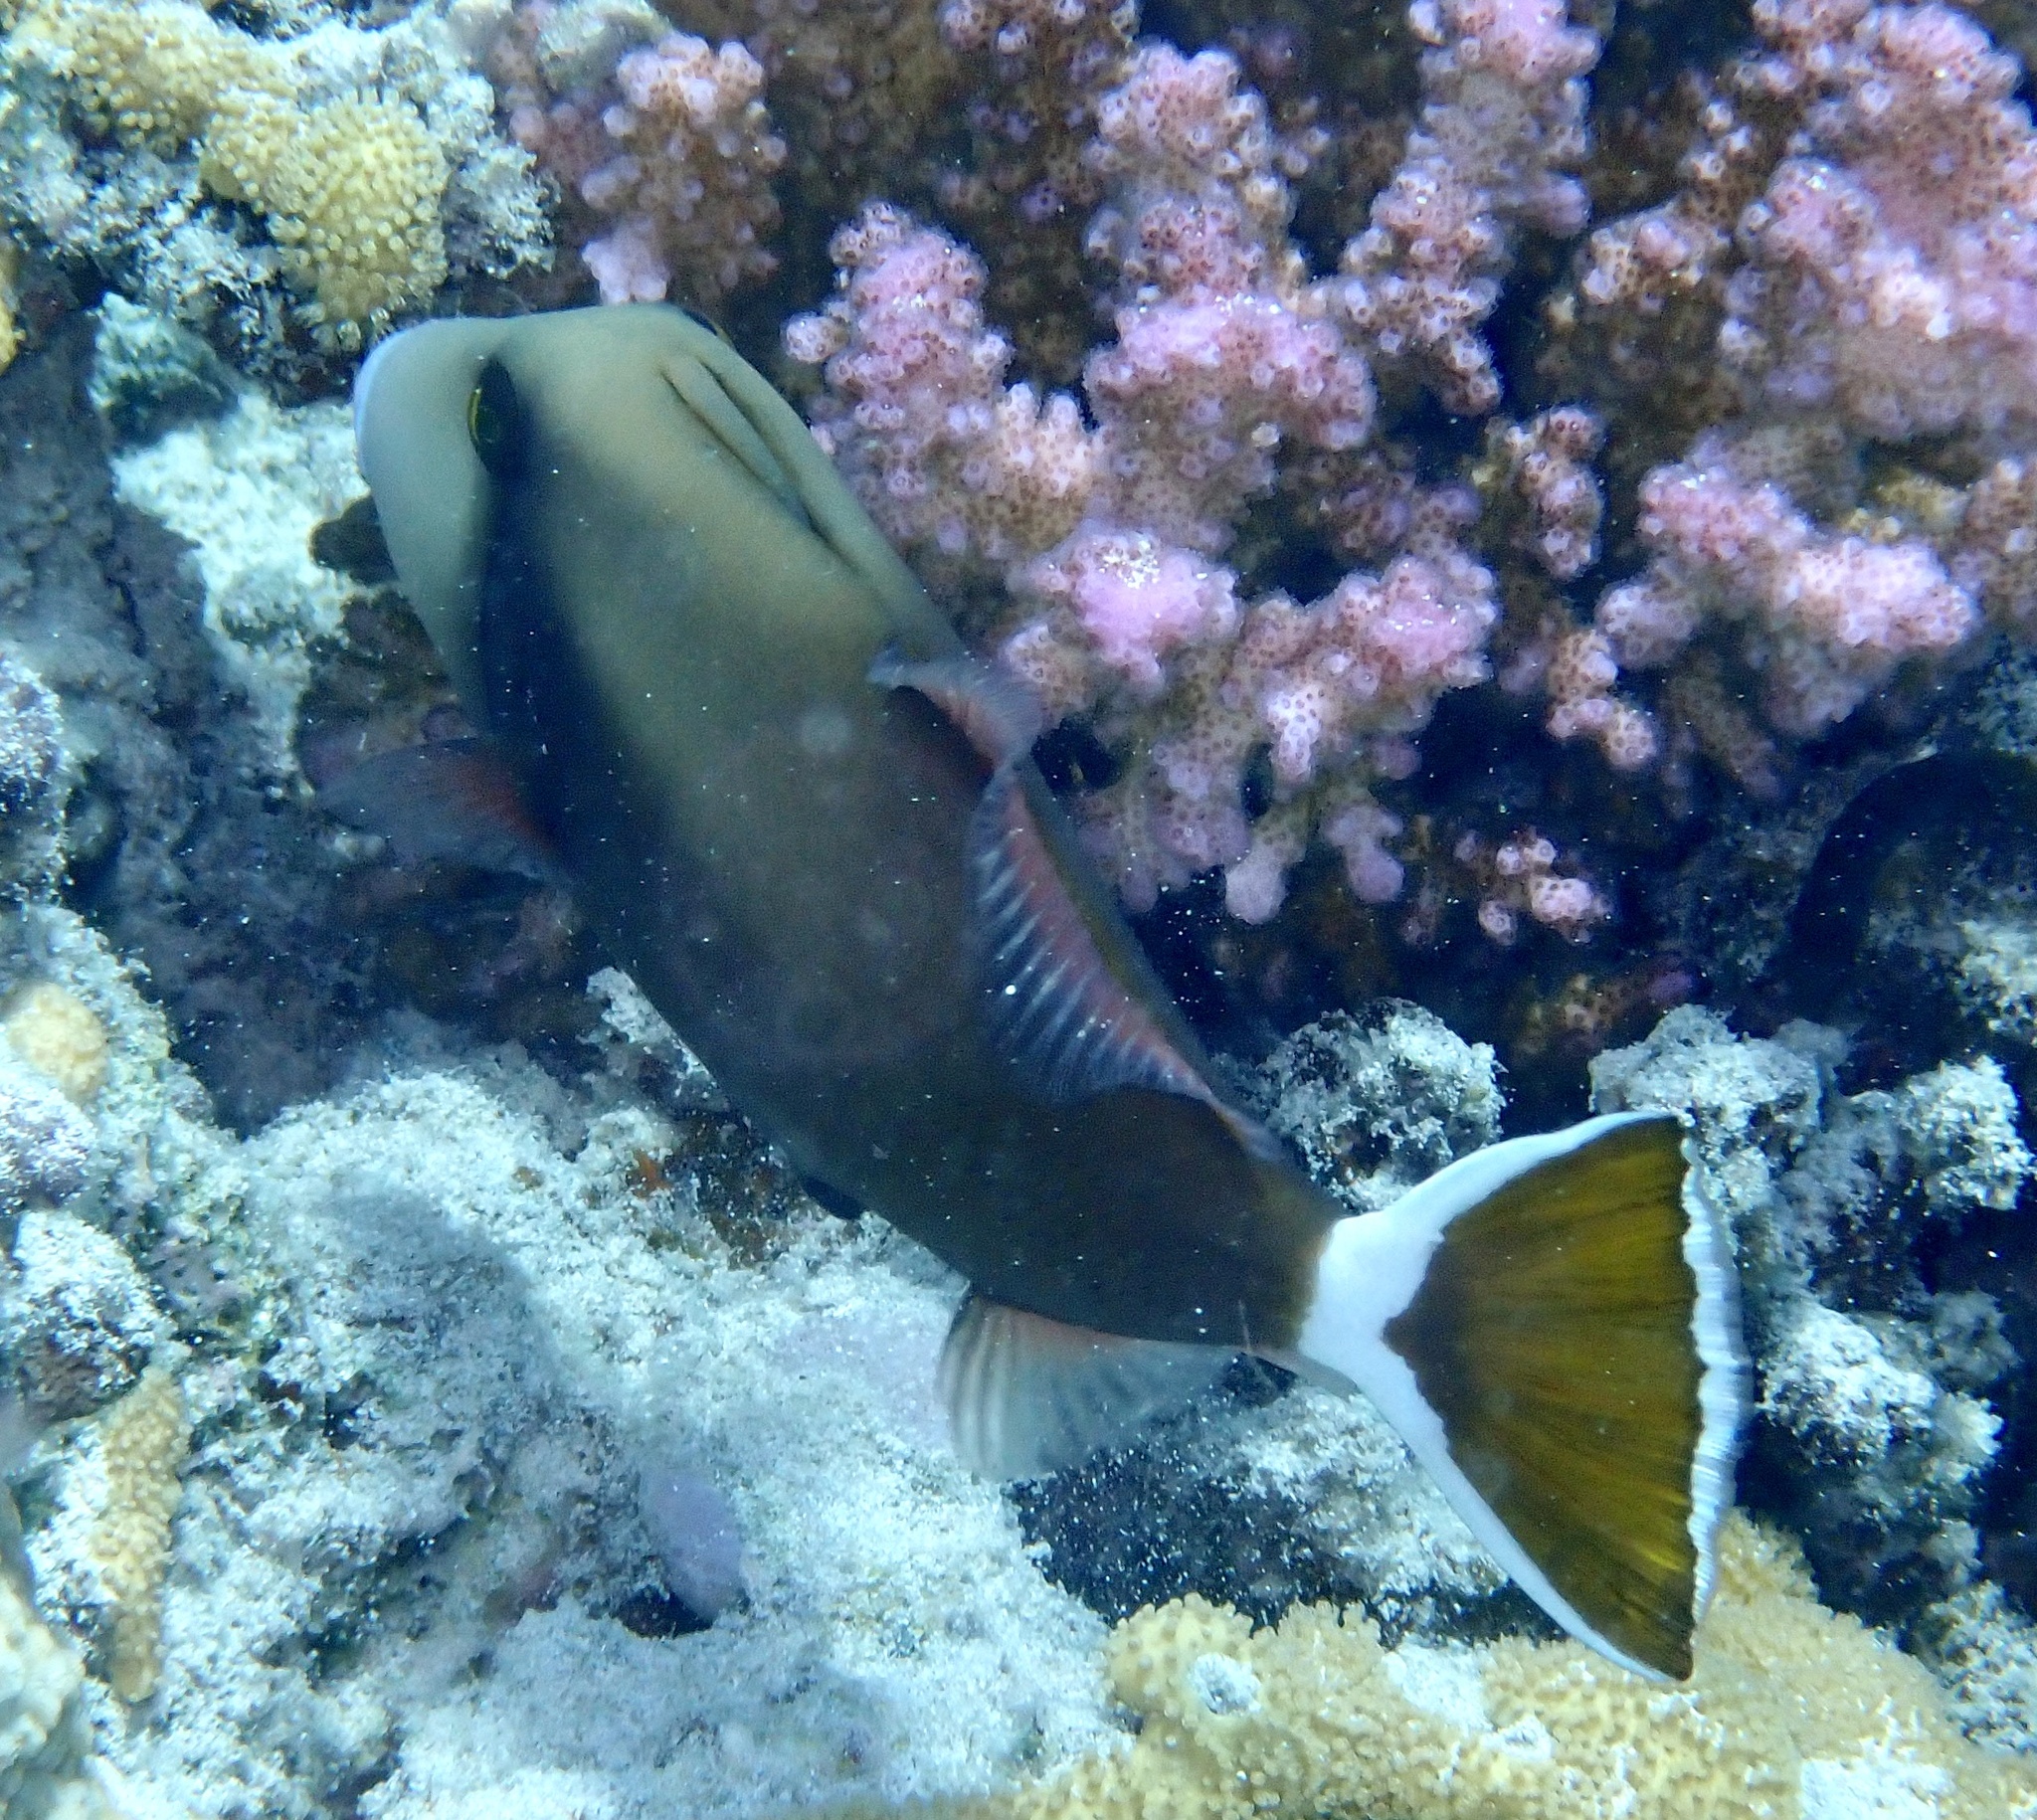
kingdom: Animalia
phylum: Chordata
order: Tetraodontiformes
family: Balistidae
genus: Sufflamen
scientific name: Sufflamen albicaudatum
